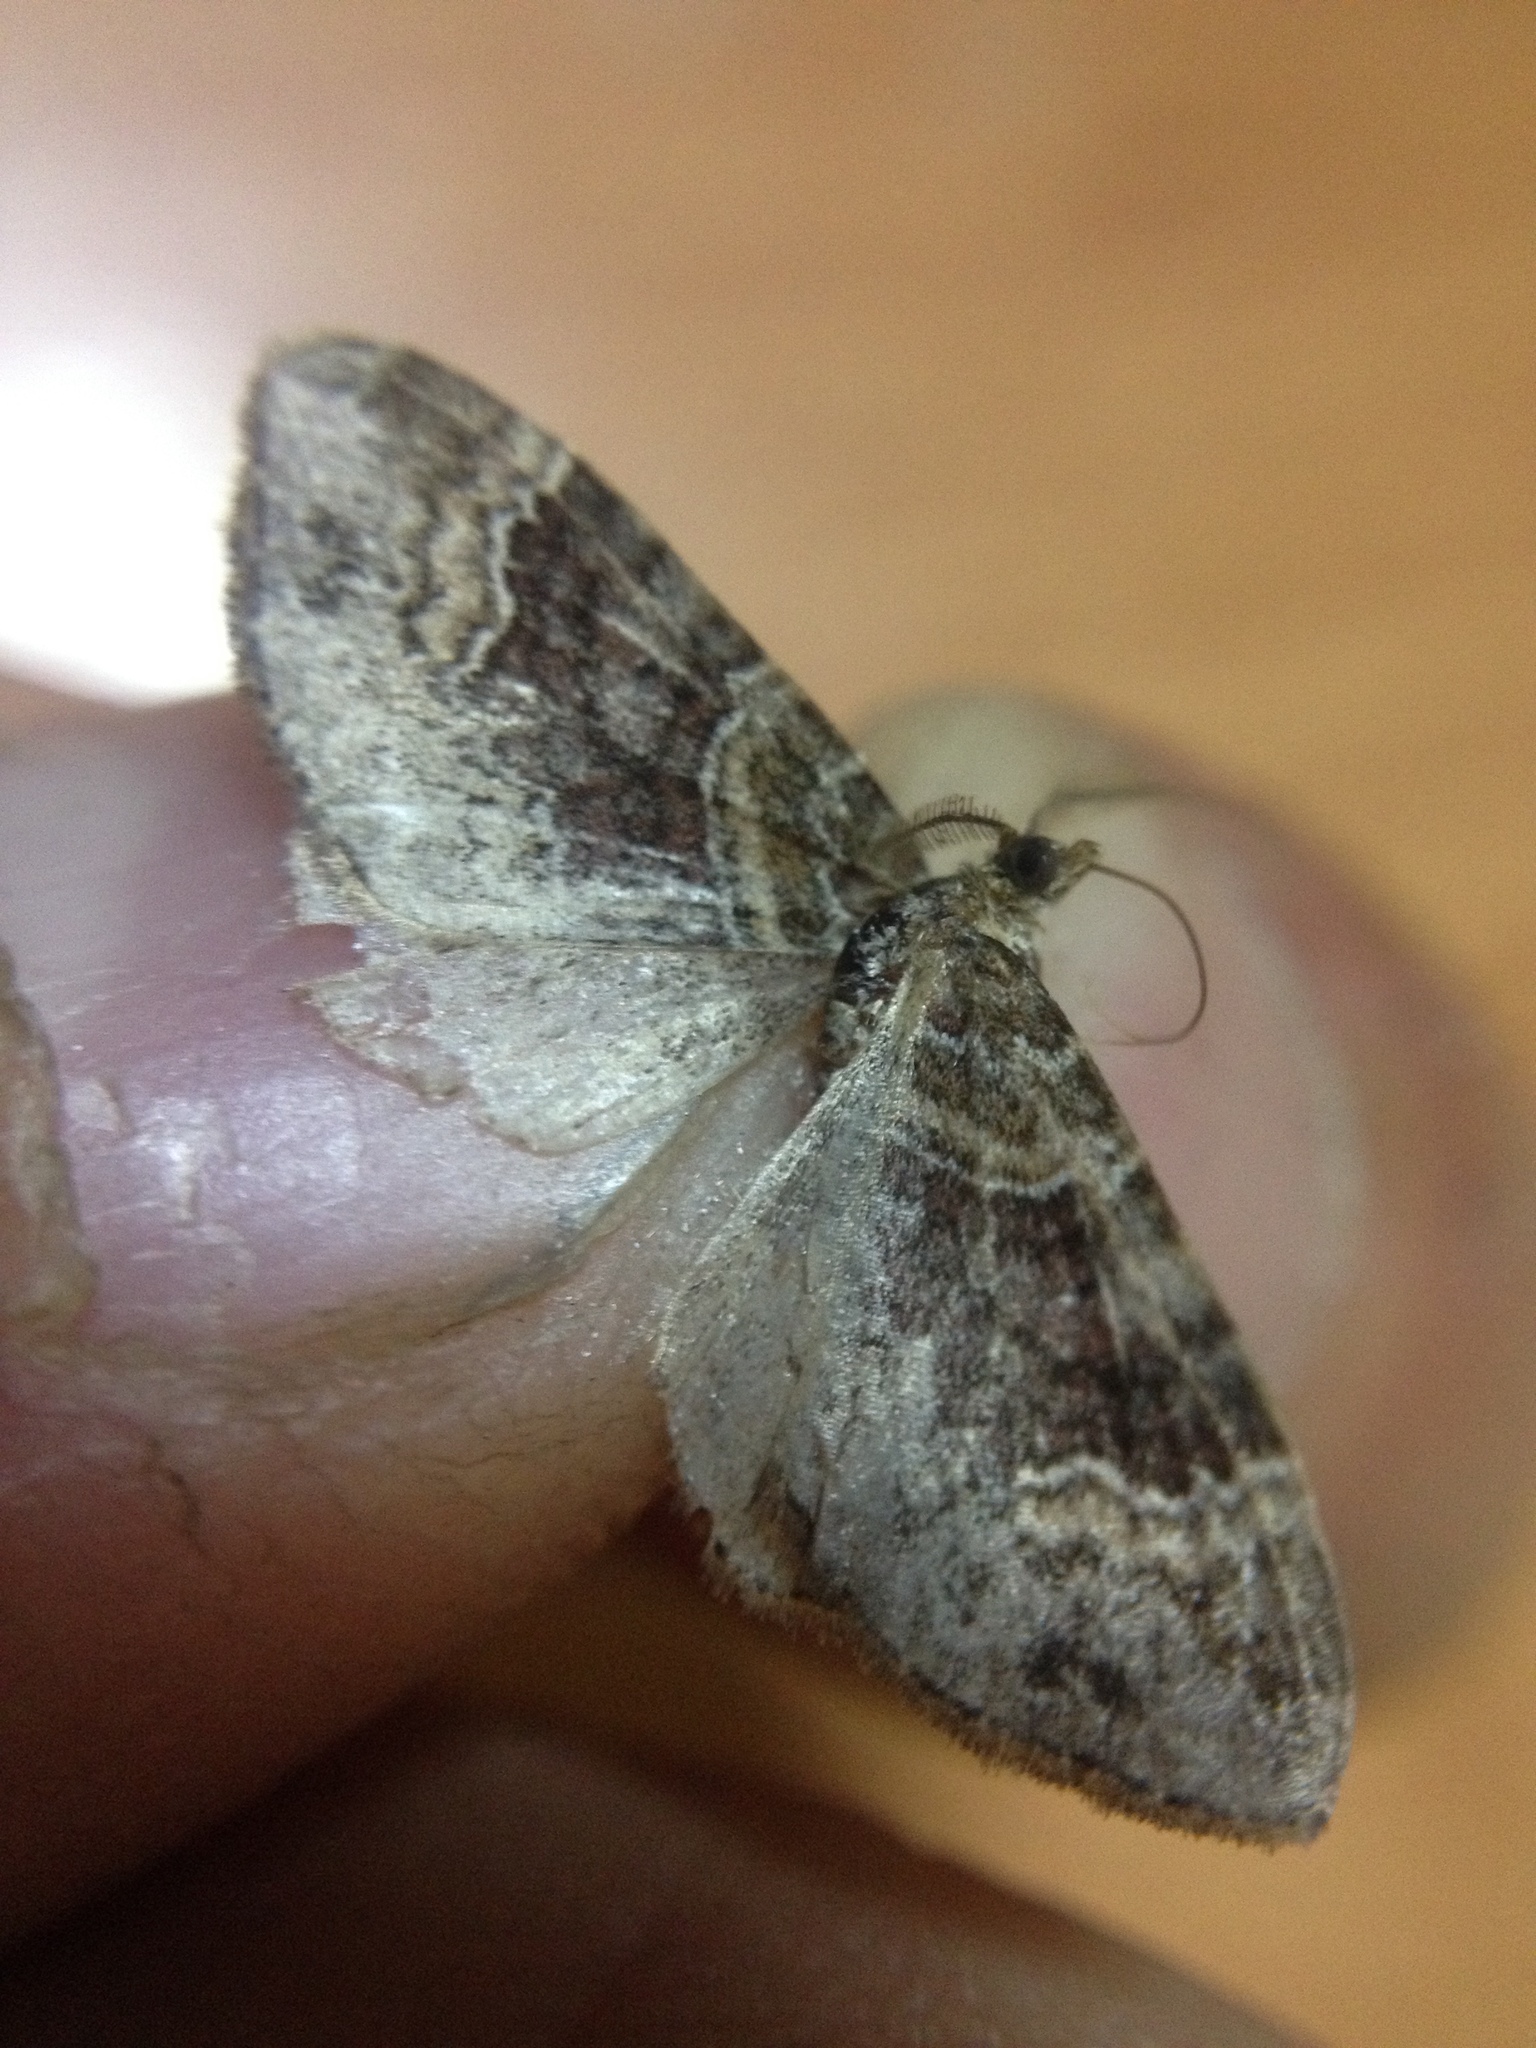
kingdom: Animalia
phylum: Arthropoda
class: Insecta
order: Lepidoptera
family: Geometridae
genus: Xanthorhoe
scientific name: Xanthorhoe ferrugata
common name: Dark-barred twin-spot carpet
